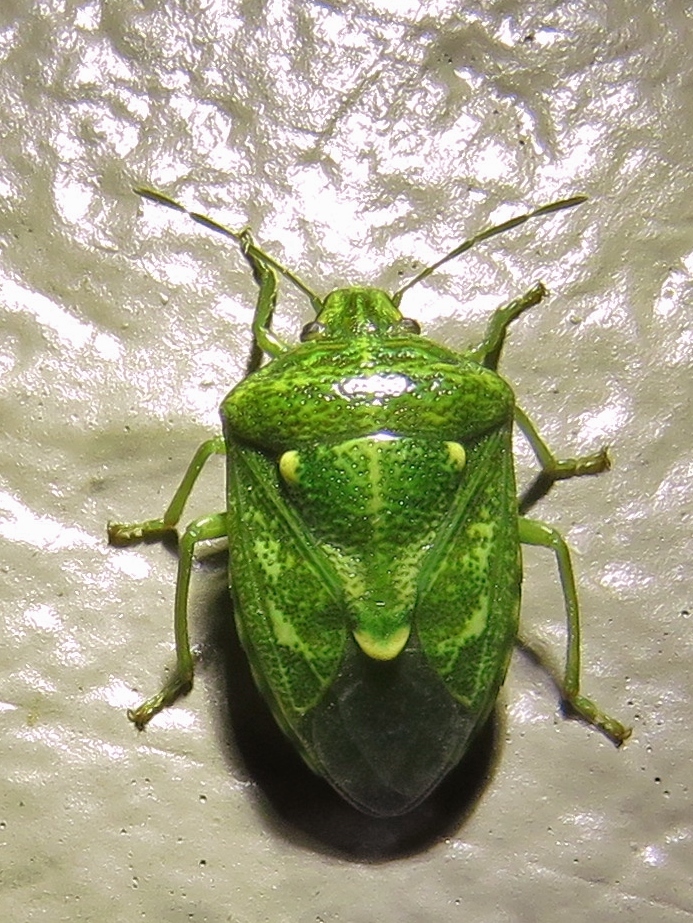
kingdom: Animalia
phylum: Arthropoda
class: Insecta
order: Hemiptera
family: Pentatomidae
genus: Banasa
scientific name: Banasa euchlora
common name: Cedar berry bug
